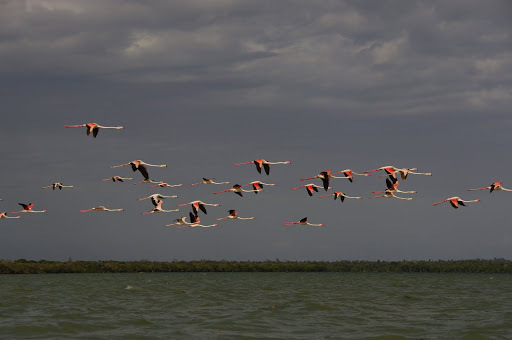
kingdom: Animalia
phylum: Chordata
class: Aves
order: Phoenicopteriformes
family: Phoenicopteridae
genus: Phoenicopterus
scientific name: Phoenicopterus roseus
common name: Greater flamingo
